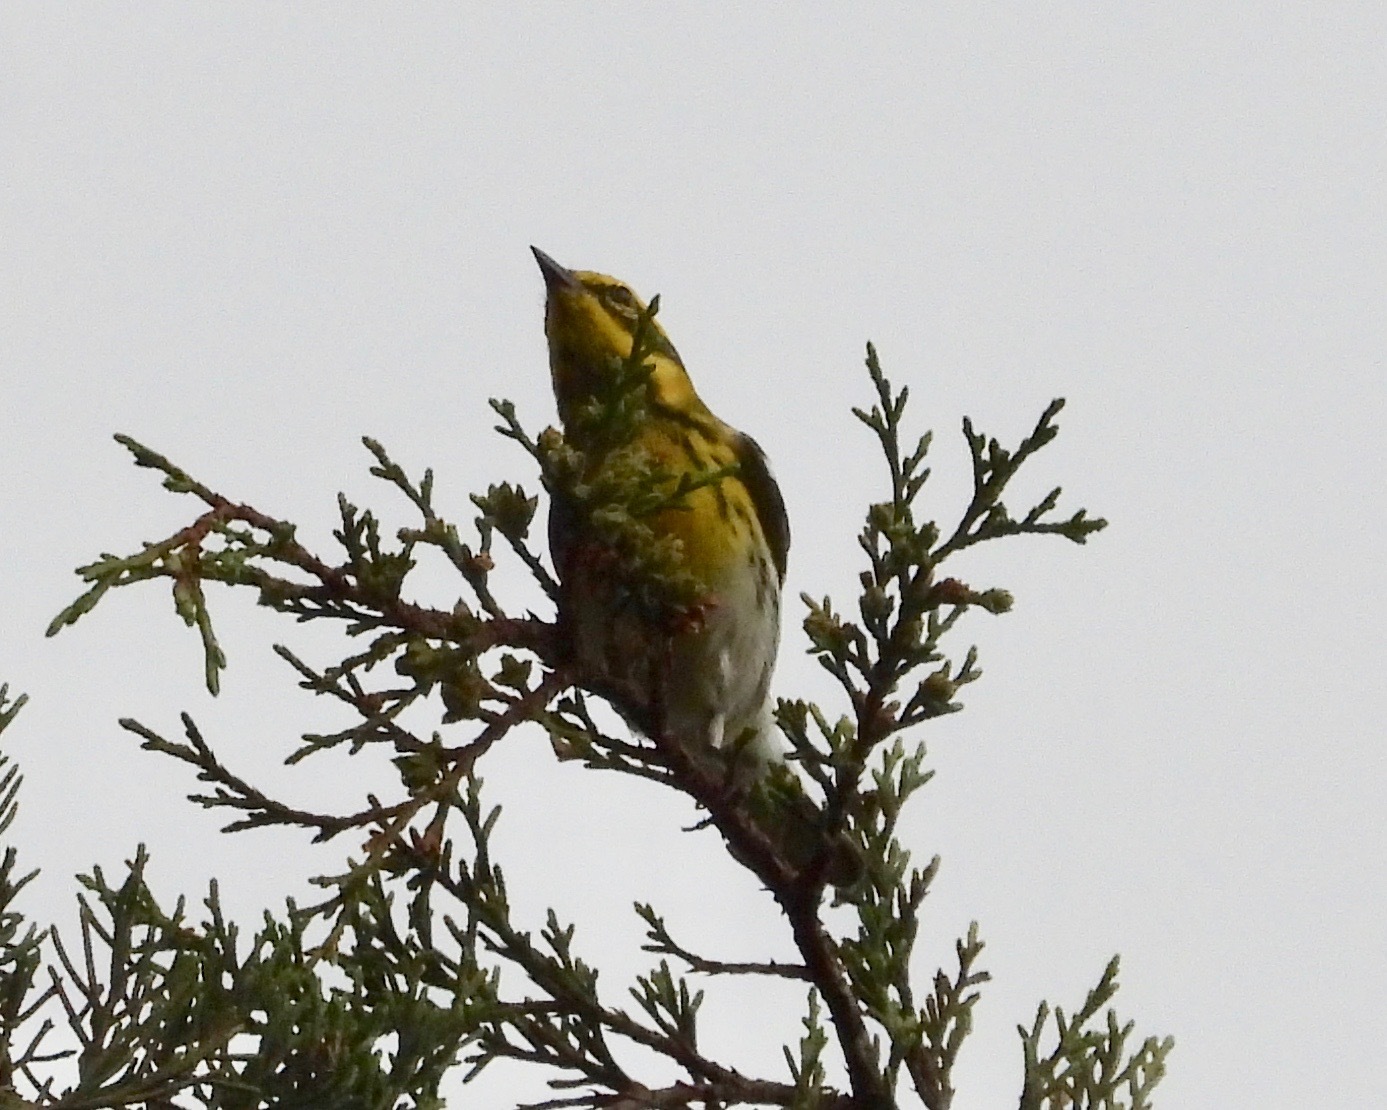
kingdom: Animalia
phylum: Chordata
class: Aves
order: Passeriformes
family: Parulidae
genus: Setophaga
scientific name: Setophaga townsendi
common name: Townsend's warbler
